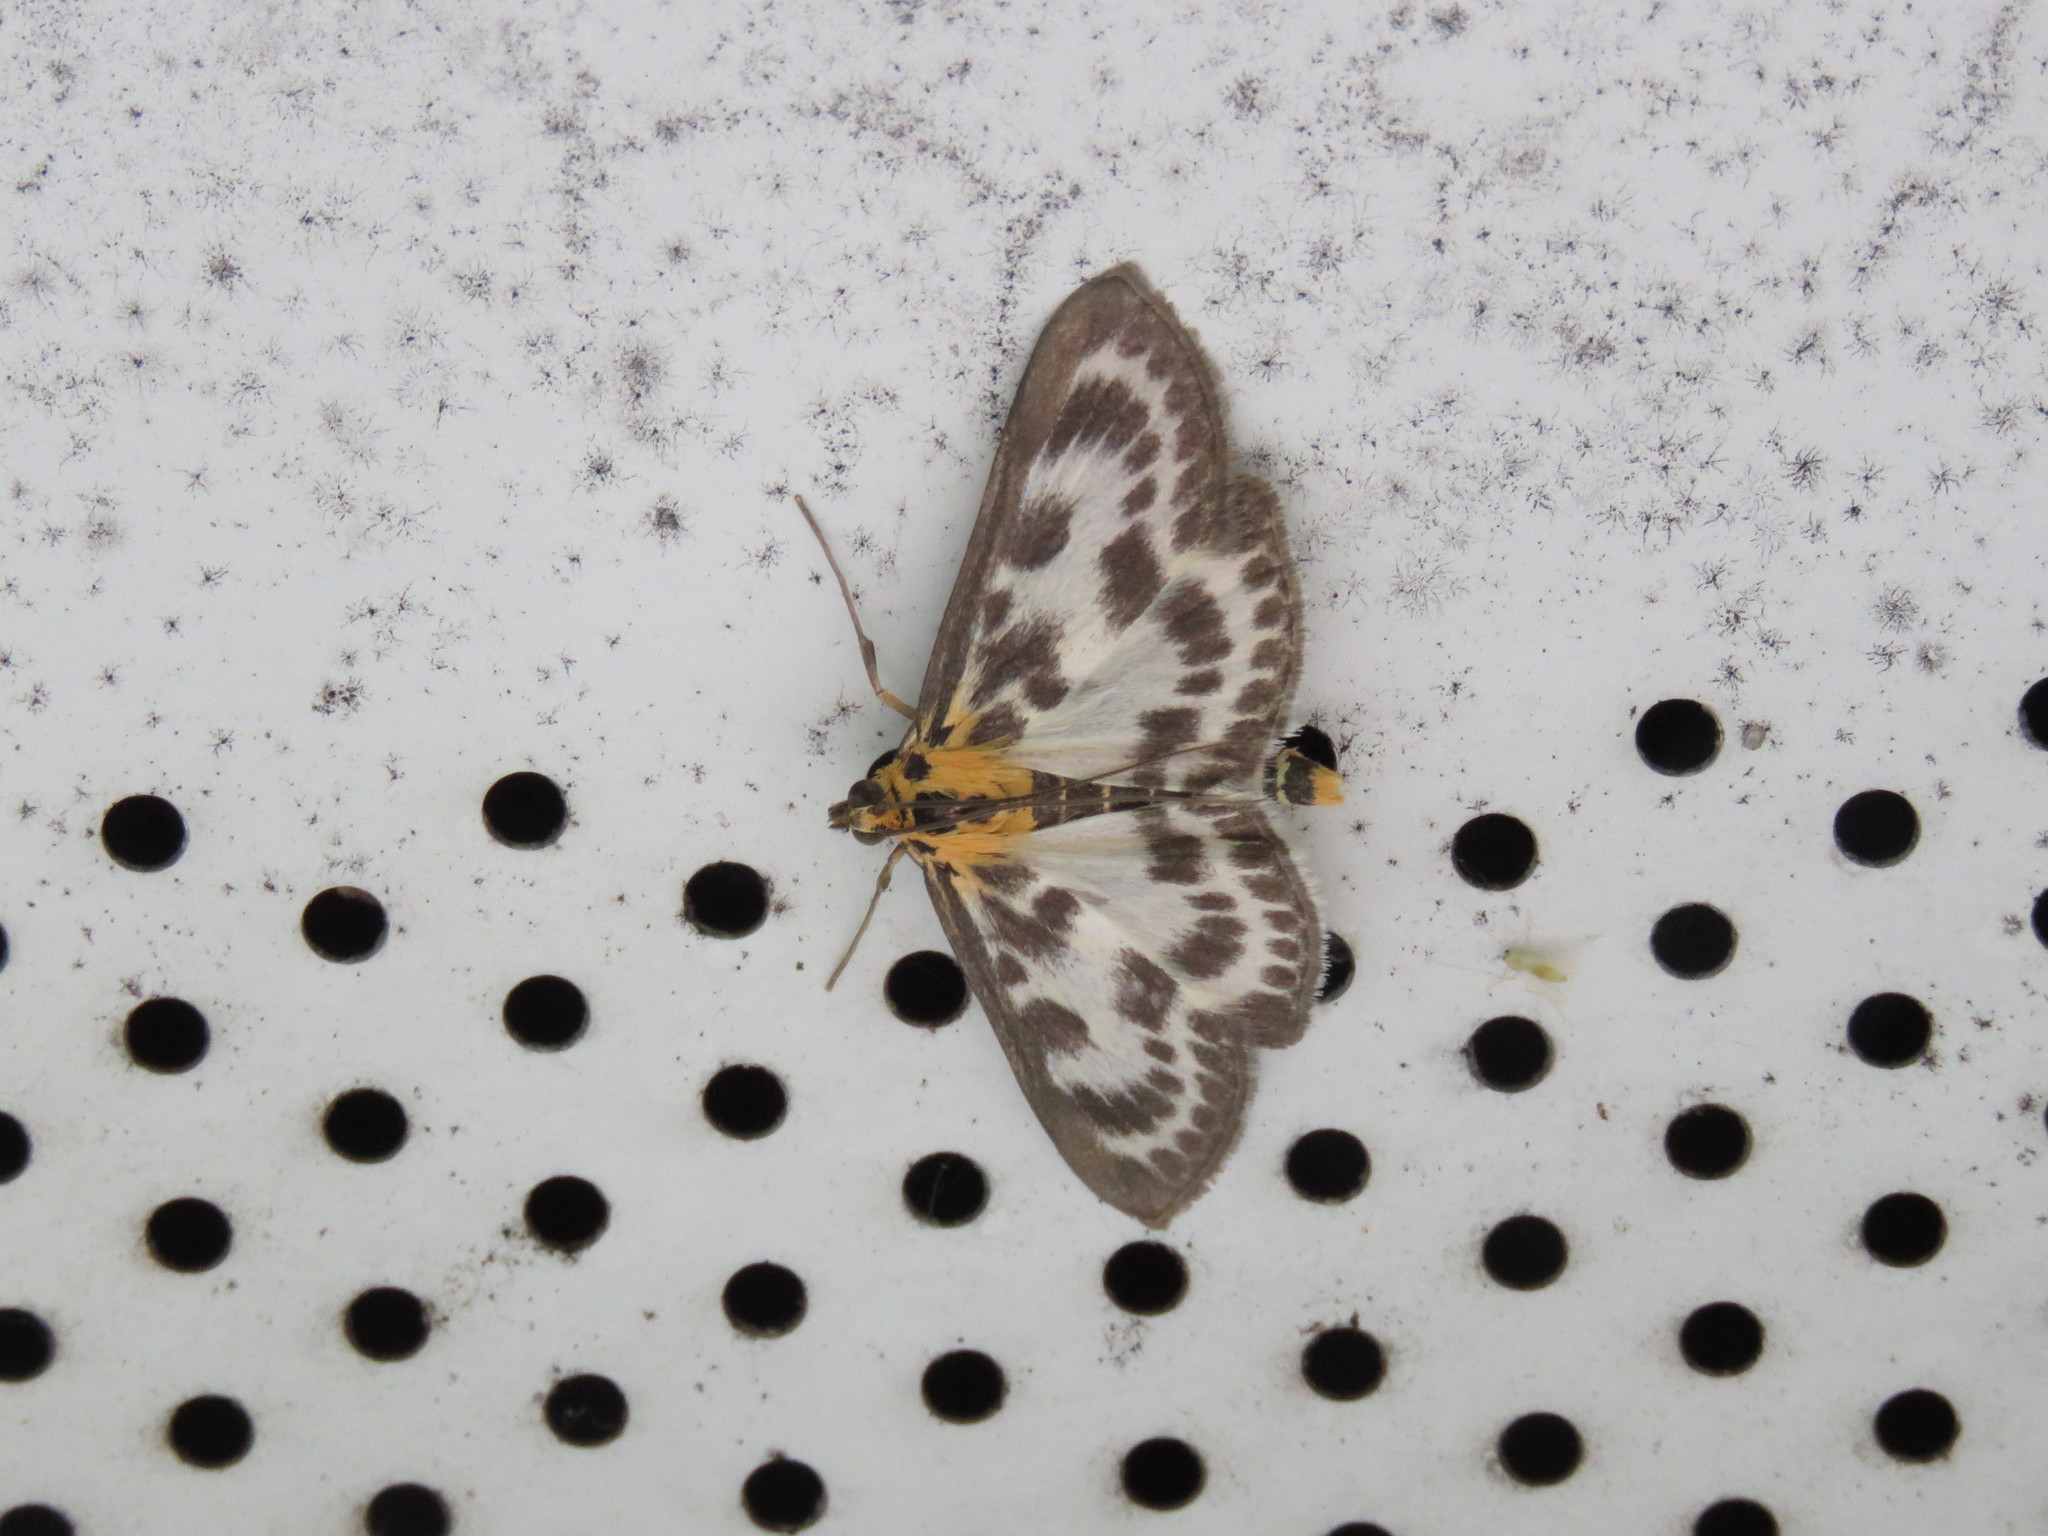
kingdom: Animalia
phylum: Arthropoda
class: Insecta
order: Lepidoptera
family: Crambidae
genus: Anania
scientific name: Anania hortulata
